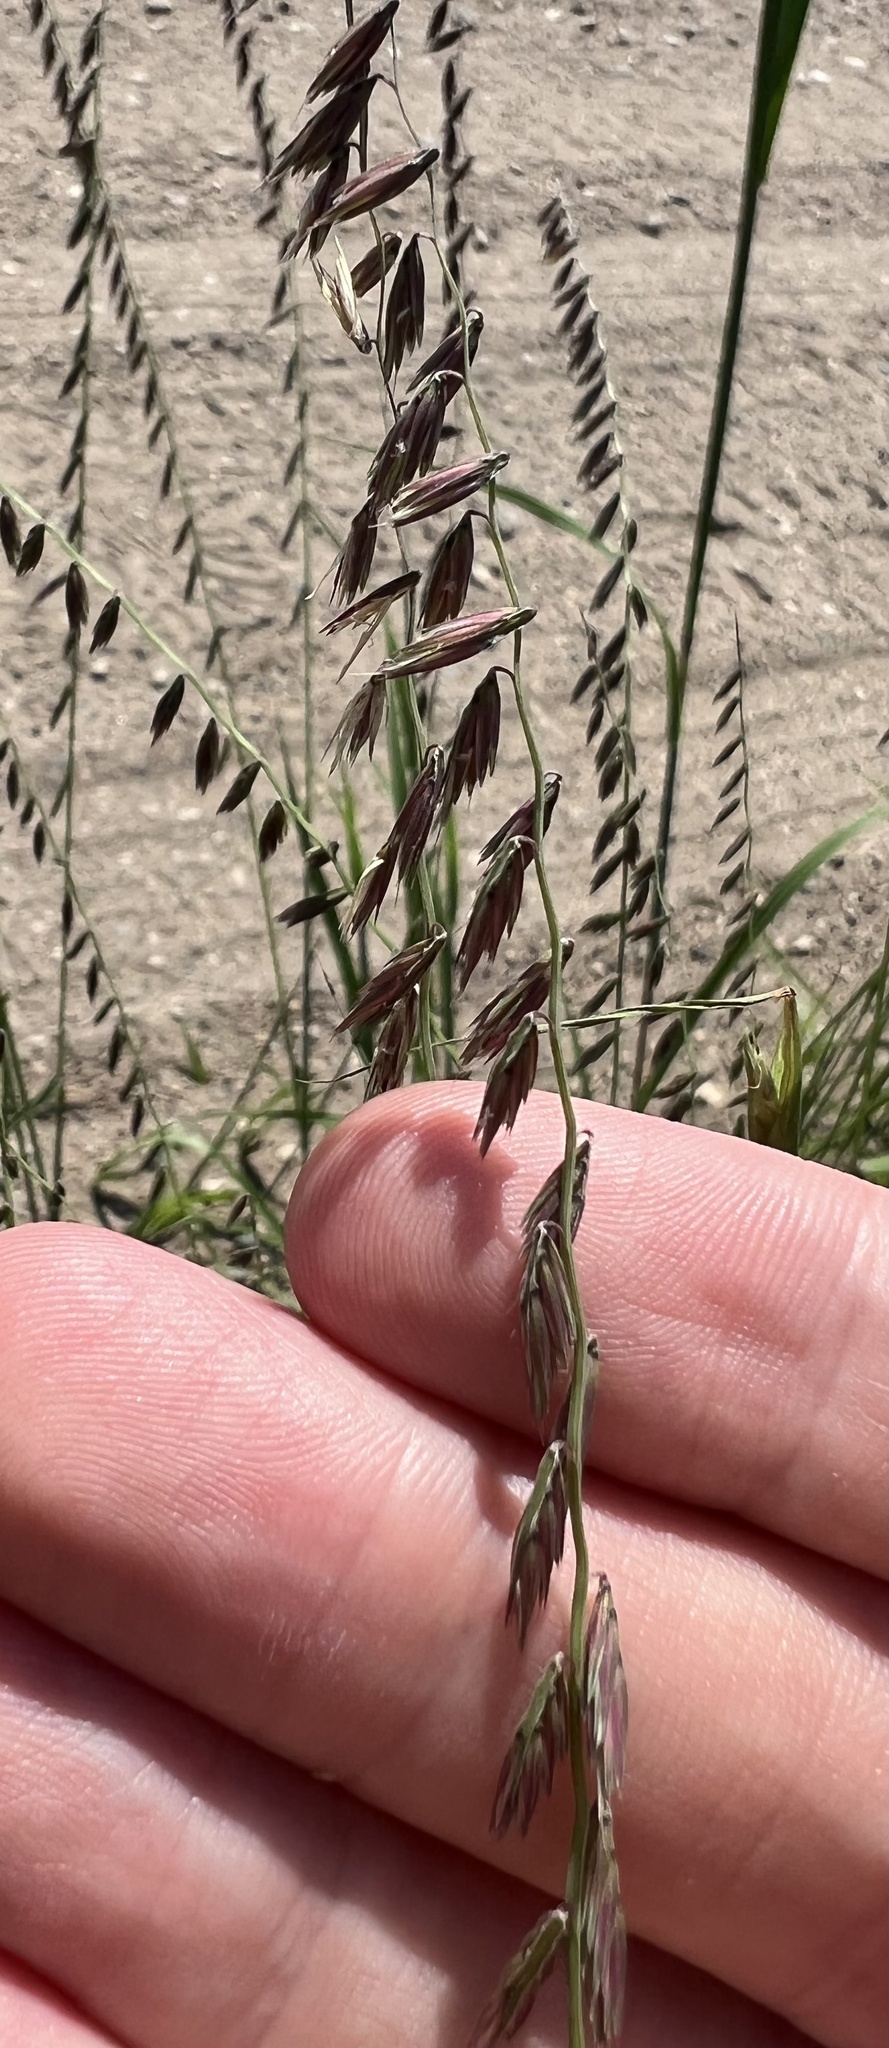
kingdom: Plantae
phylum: Tracheophyta
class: Liliopsida
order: Poales
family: Poaceae
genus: Bouteloua
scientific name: Bouteloua curtipendula
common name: Side-oats grama
